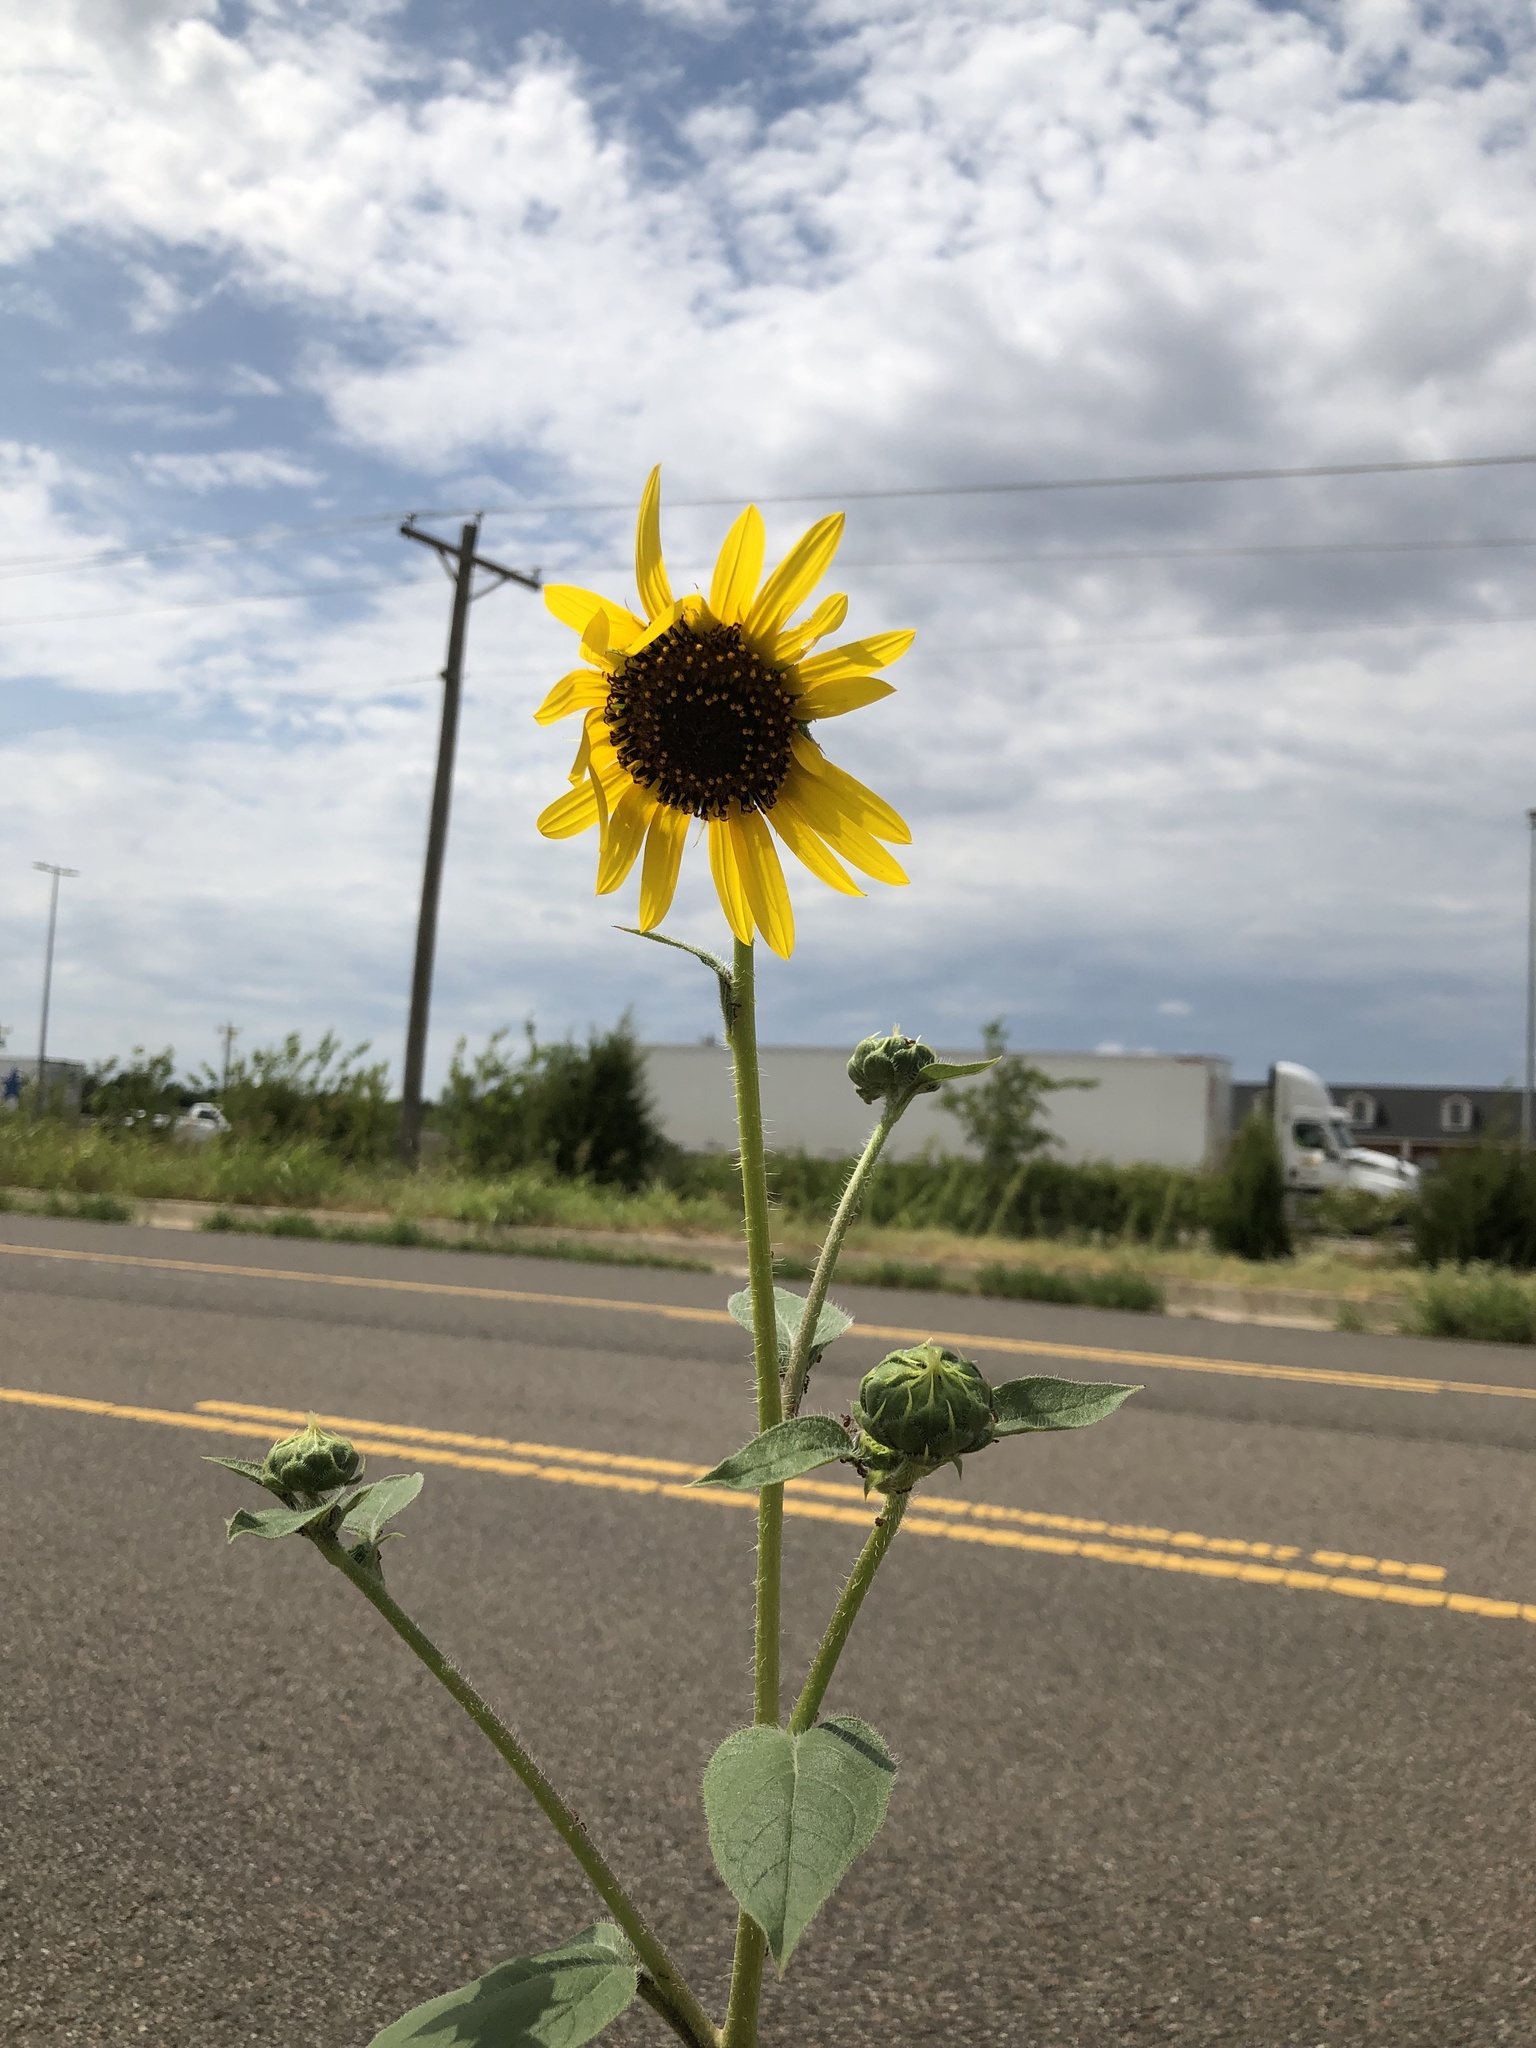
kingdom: Plantae
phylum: Tracheophyta
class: Magnoliopsida
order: Asterales
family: Asteraceae
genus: Helianthus
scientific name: Helianthus annuus
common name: Sunflower
